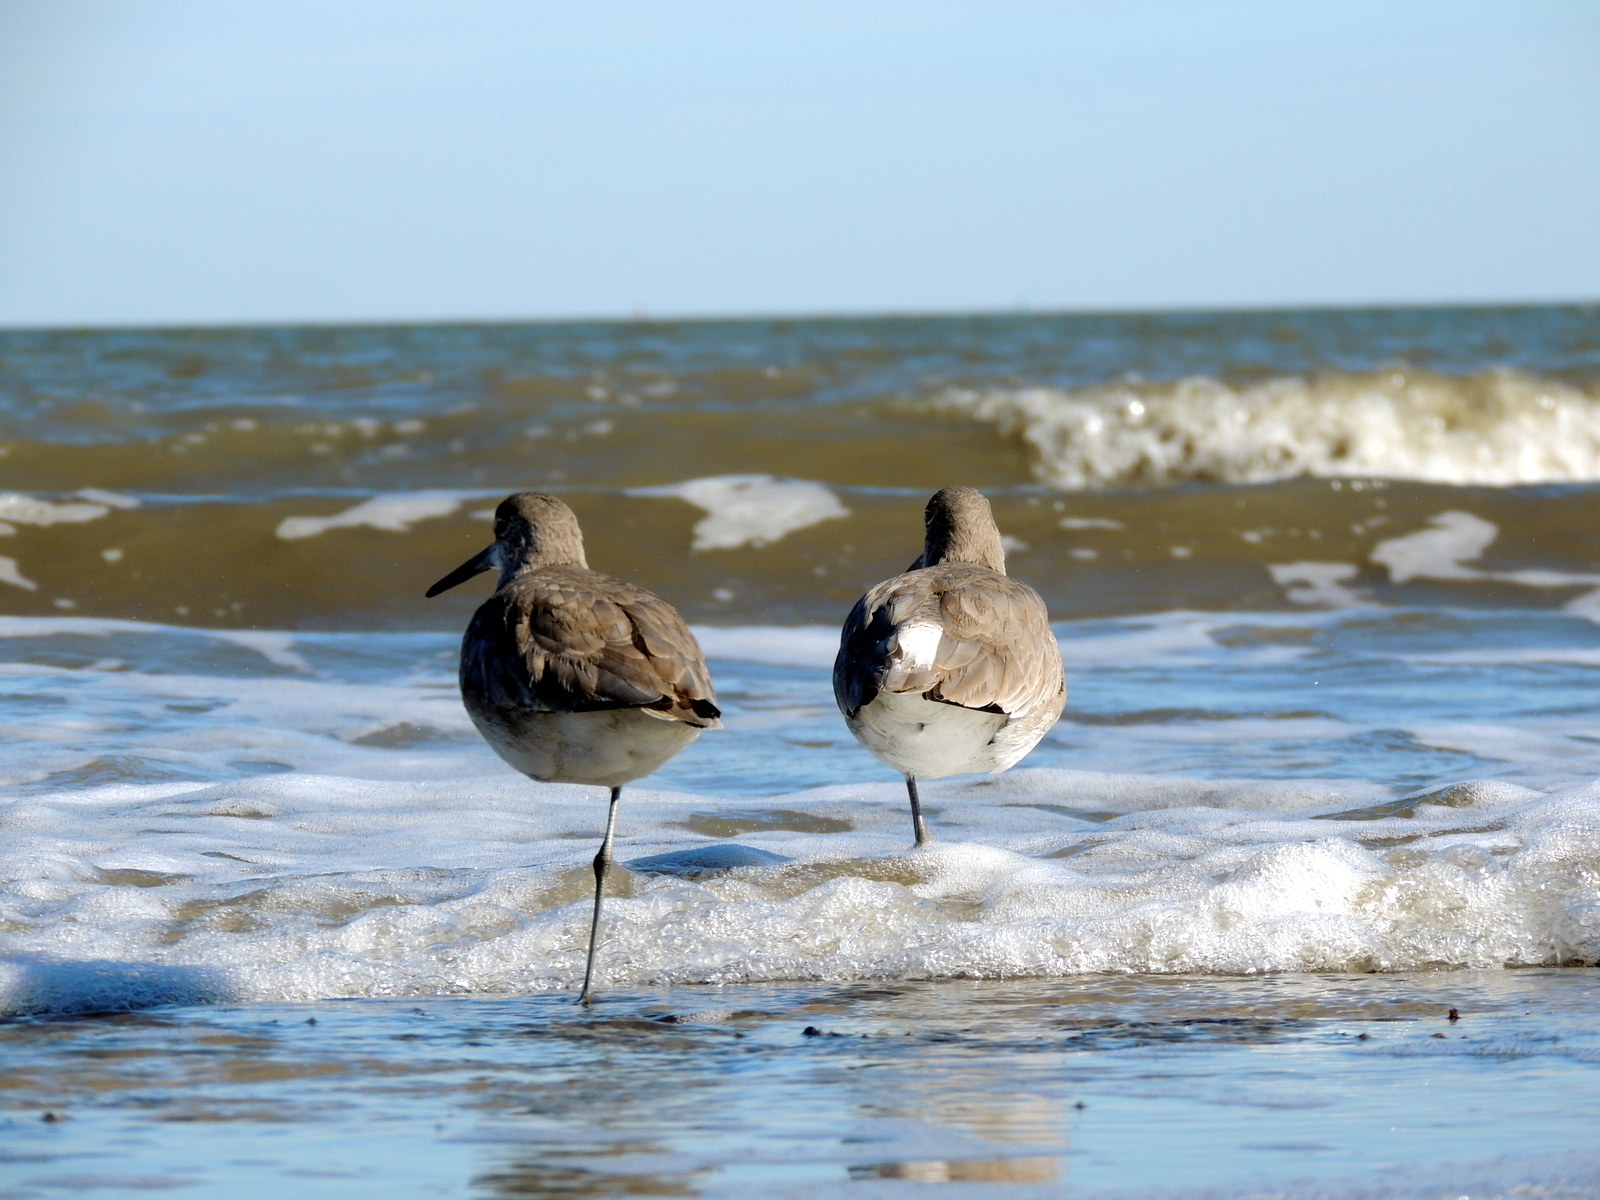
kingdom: Animalia
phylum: Chordata
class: Aves
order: Charadriiformes
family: Scolopacidae
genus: Tringa
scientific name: Tringa semipalmata
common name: Willet
